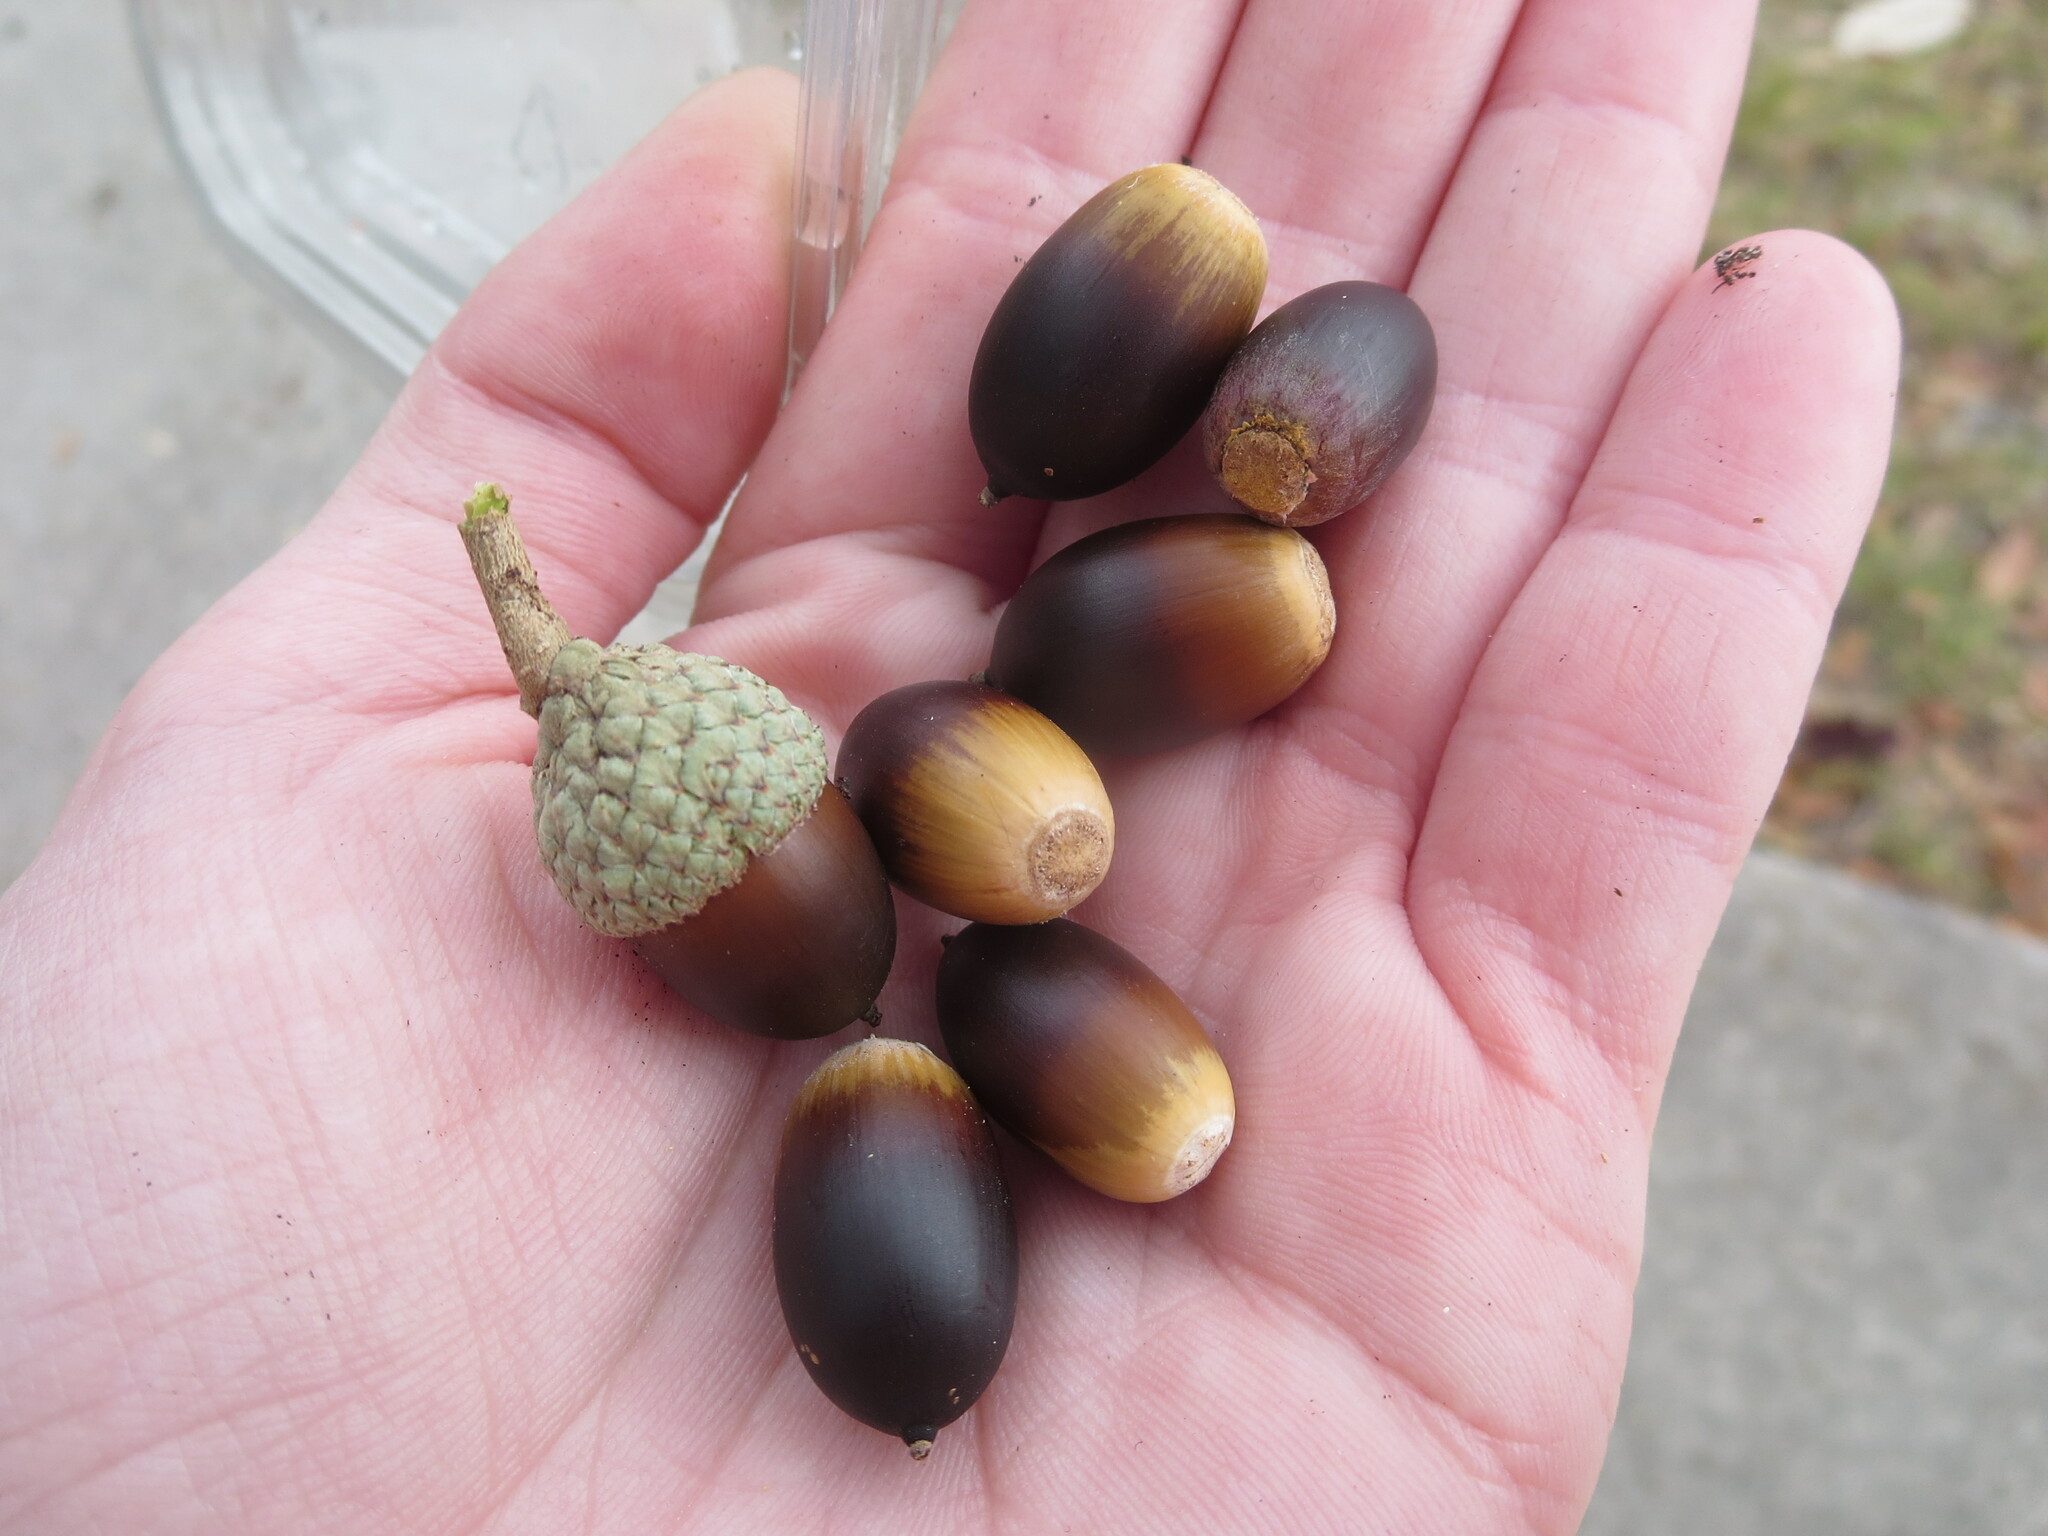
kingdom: Plantae
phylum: Tracheophyta
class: Magnoliopsida
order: Fagales
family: Fagaceae
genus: Quercus
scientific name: Quercus virginiana
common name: Southern live oak
